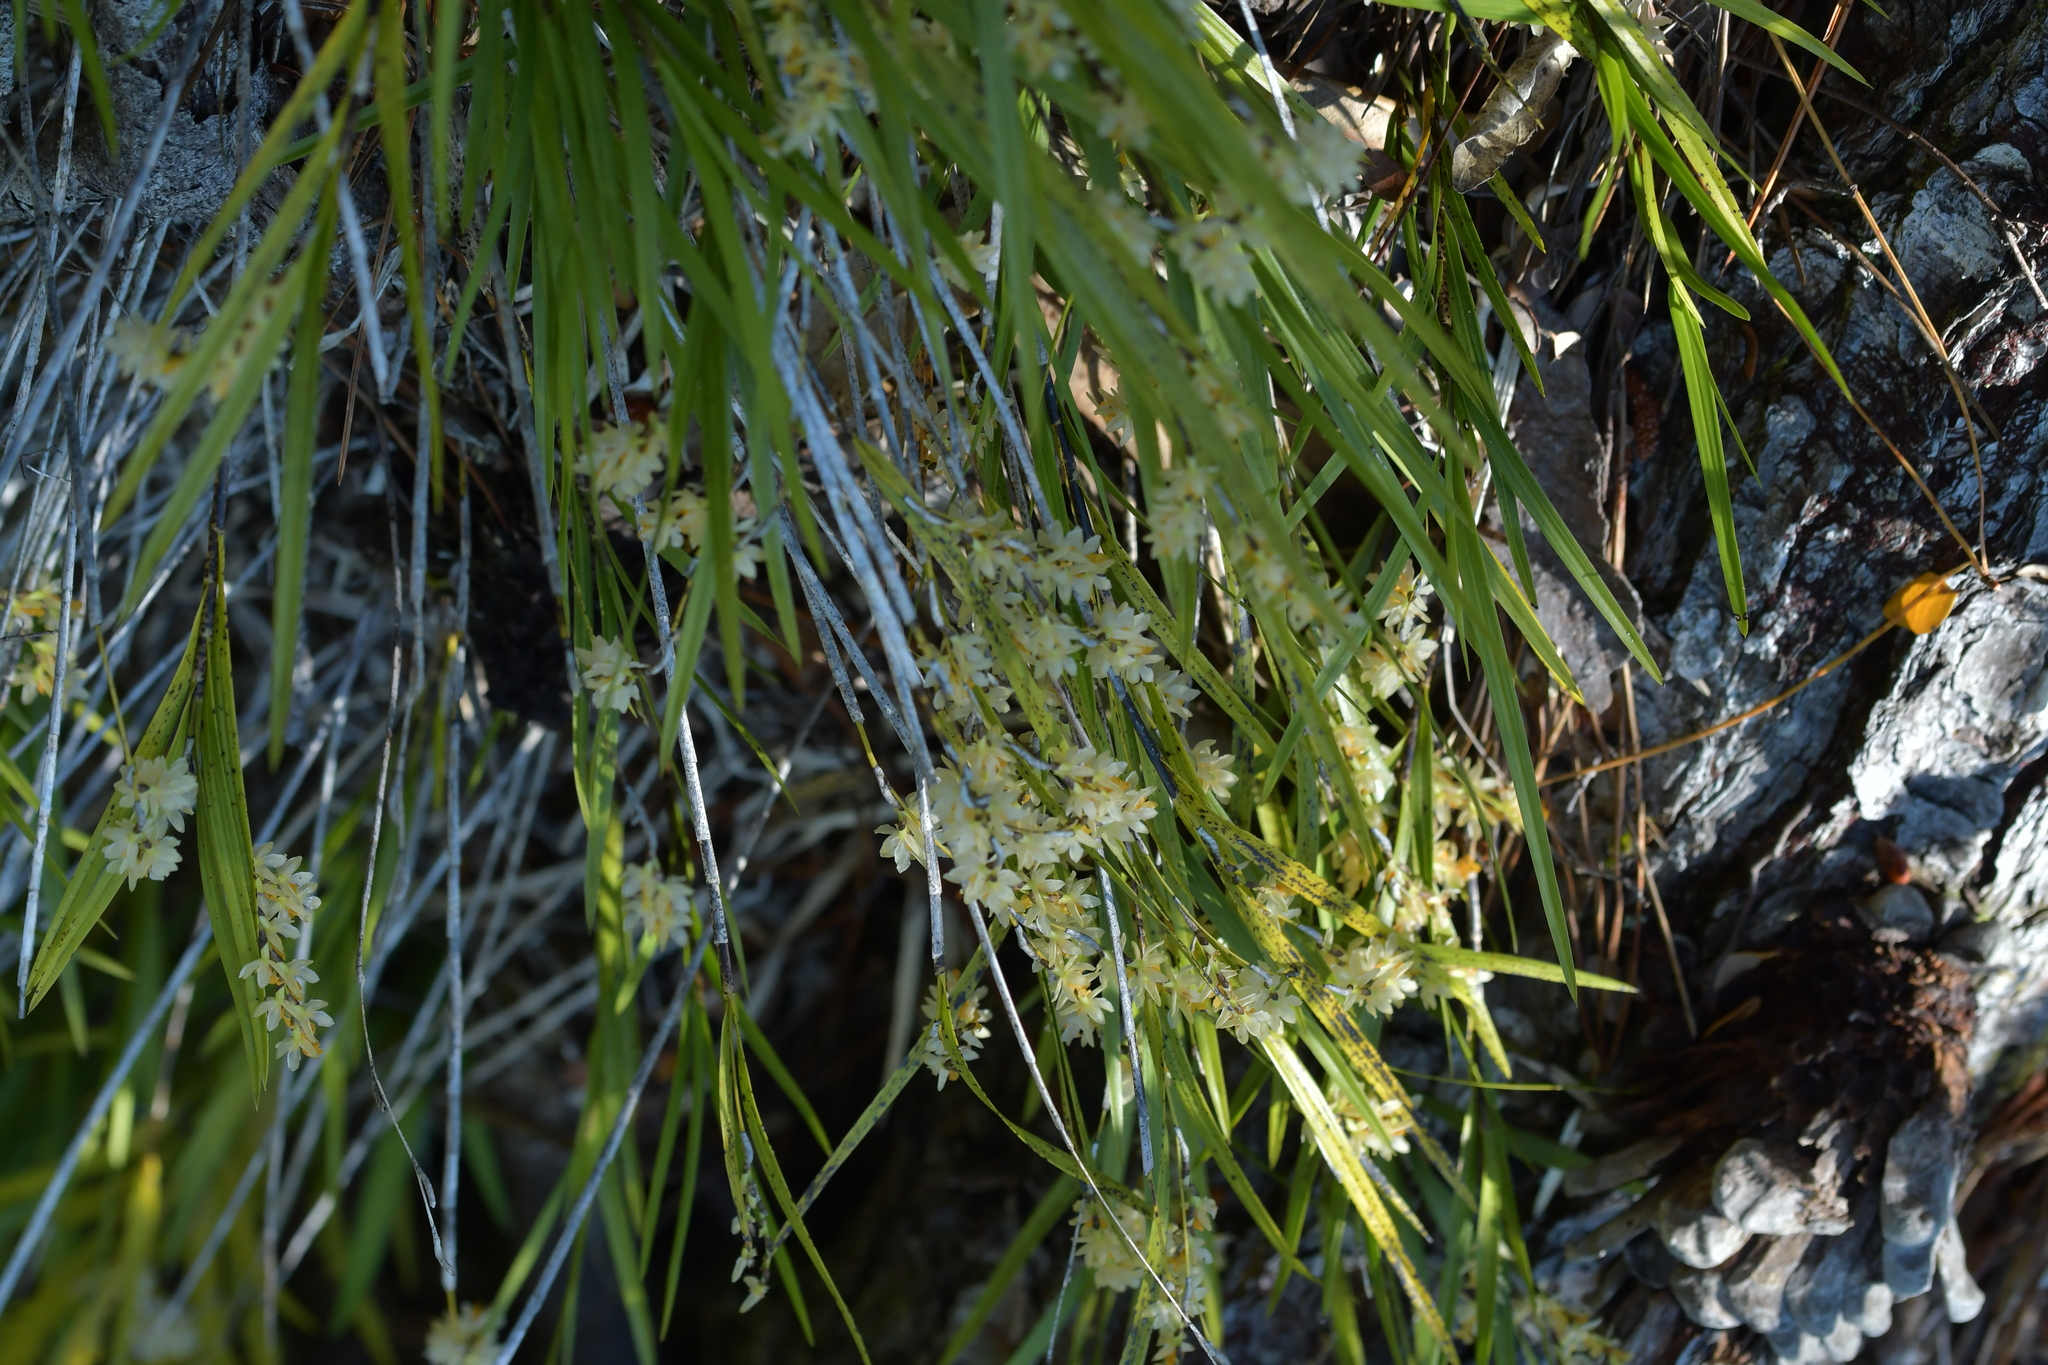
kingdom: Plantae
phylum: Tracheophyta
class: Liliopsida
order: Asparagales
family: Orchidaceae
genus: Earina
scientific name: Earina mucronata
